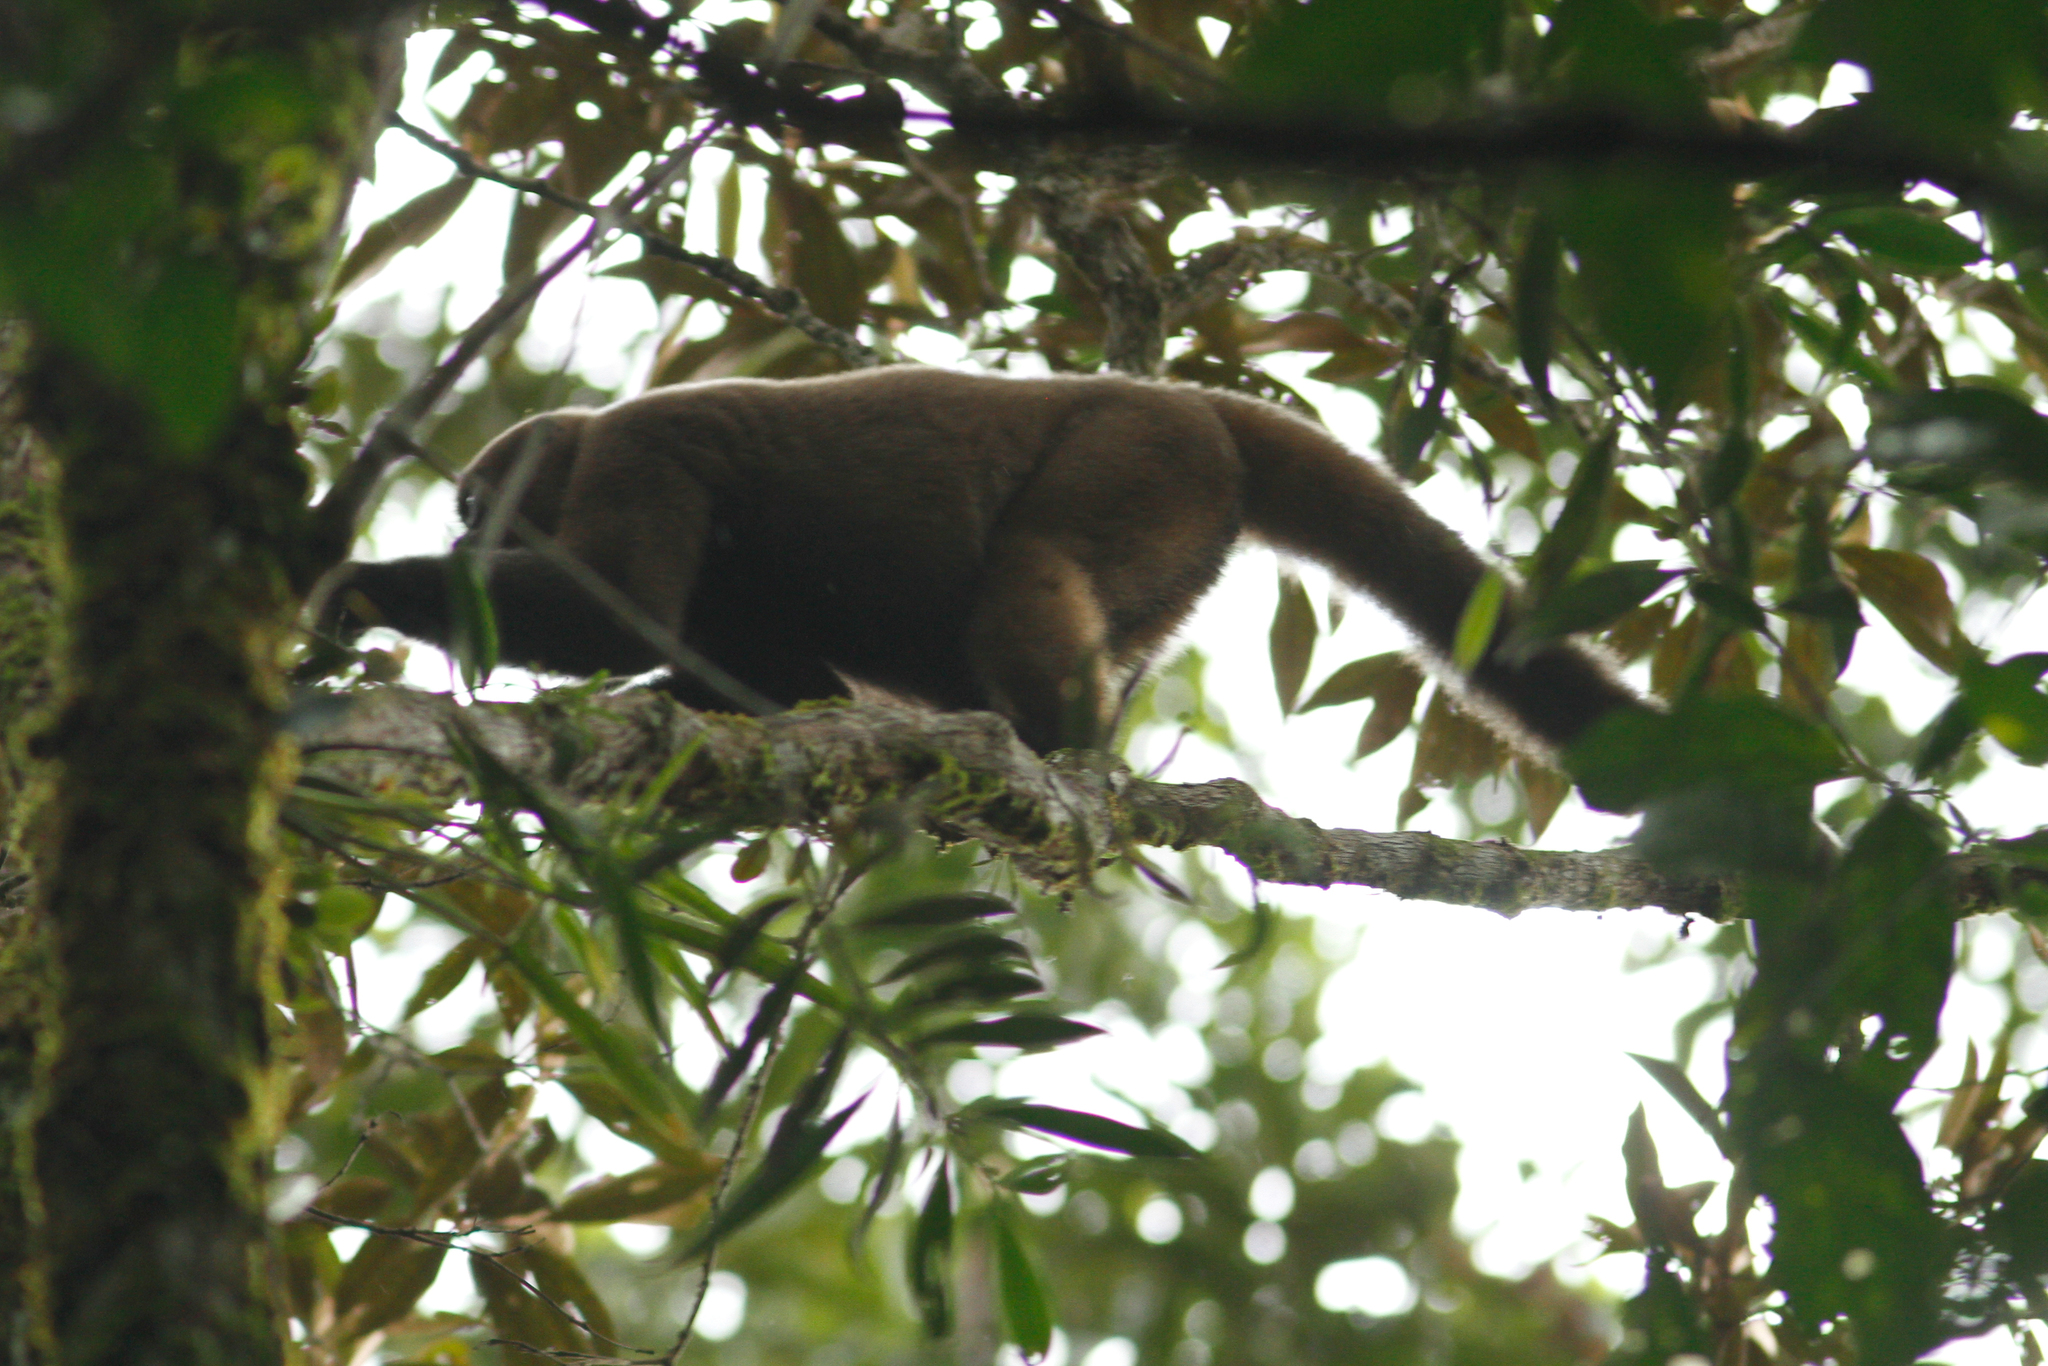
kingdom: Animalia
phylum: Chordata
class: Mammalia
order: Primates
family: Atelidae
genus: Lagothrix
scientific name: Lagothrix lagothricha
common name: Brown woolly monkey
